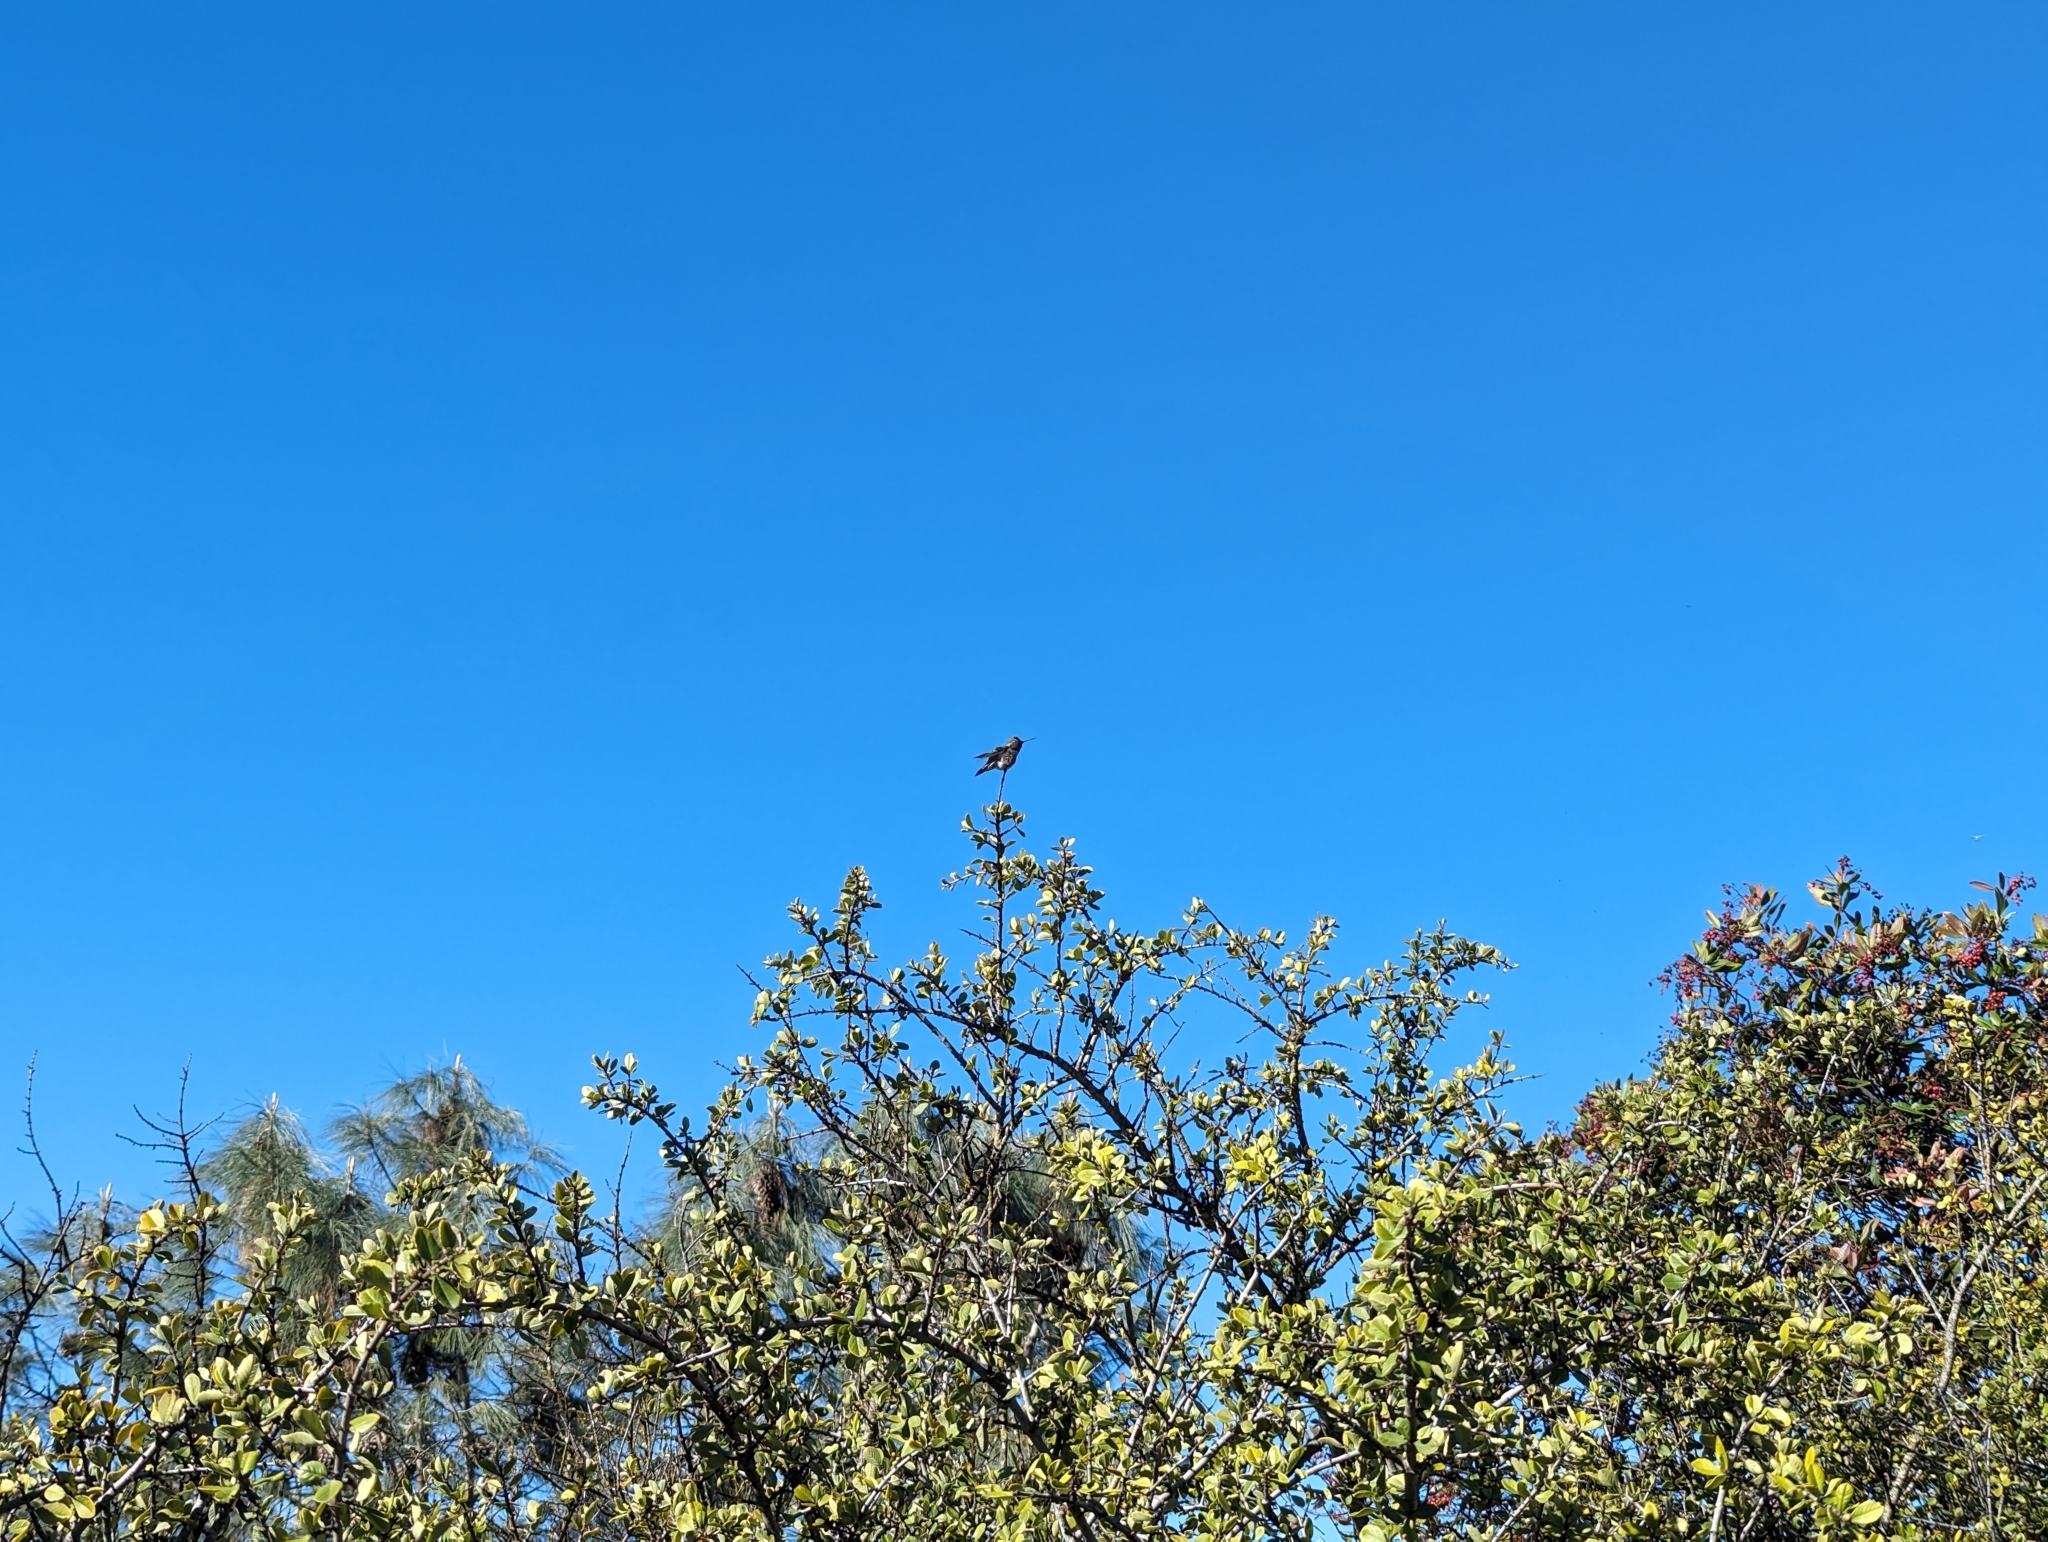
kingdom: Animalia
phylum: Chordata
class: Aves
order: Apodiformes
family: Trochilidae
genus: Calypte
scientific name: Calypte anna
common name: Anna's hummingbird
